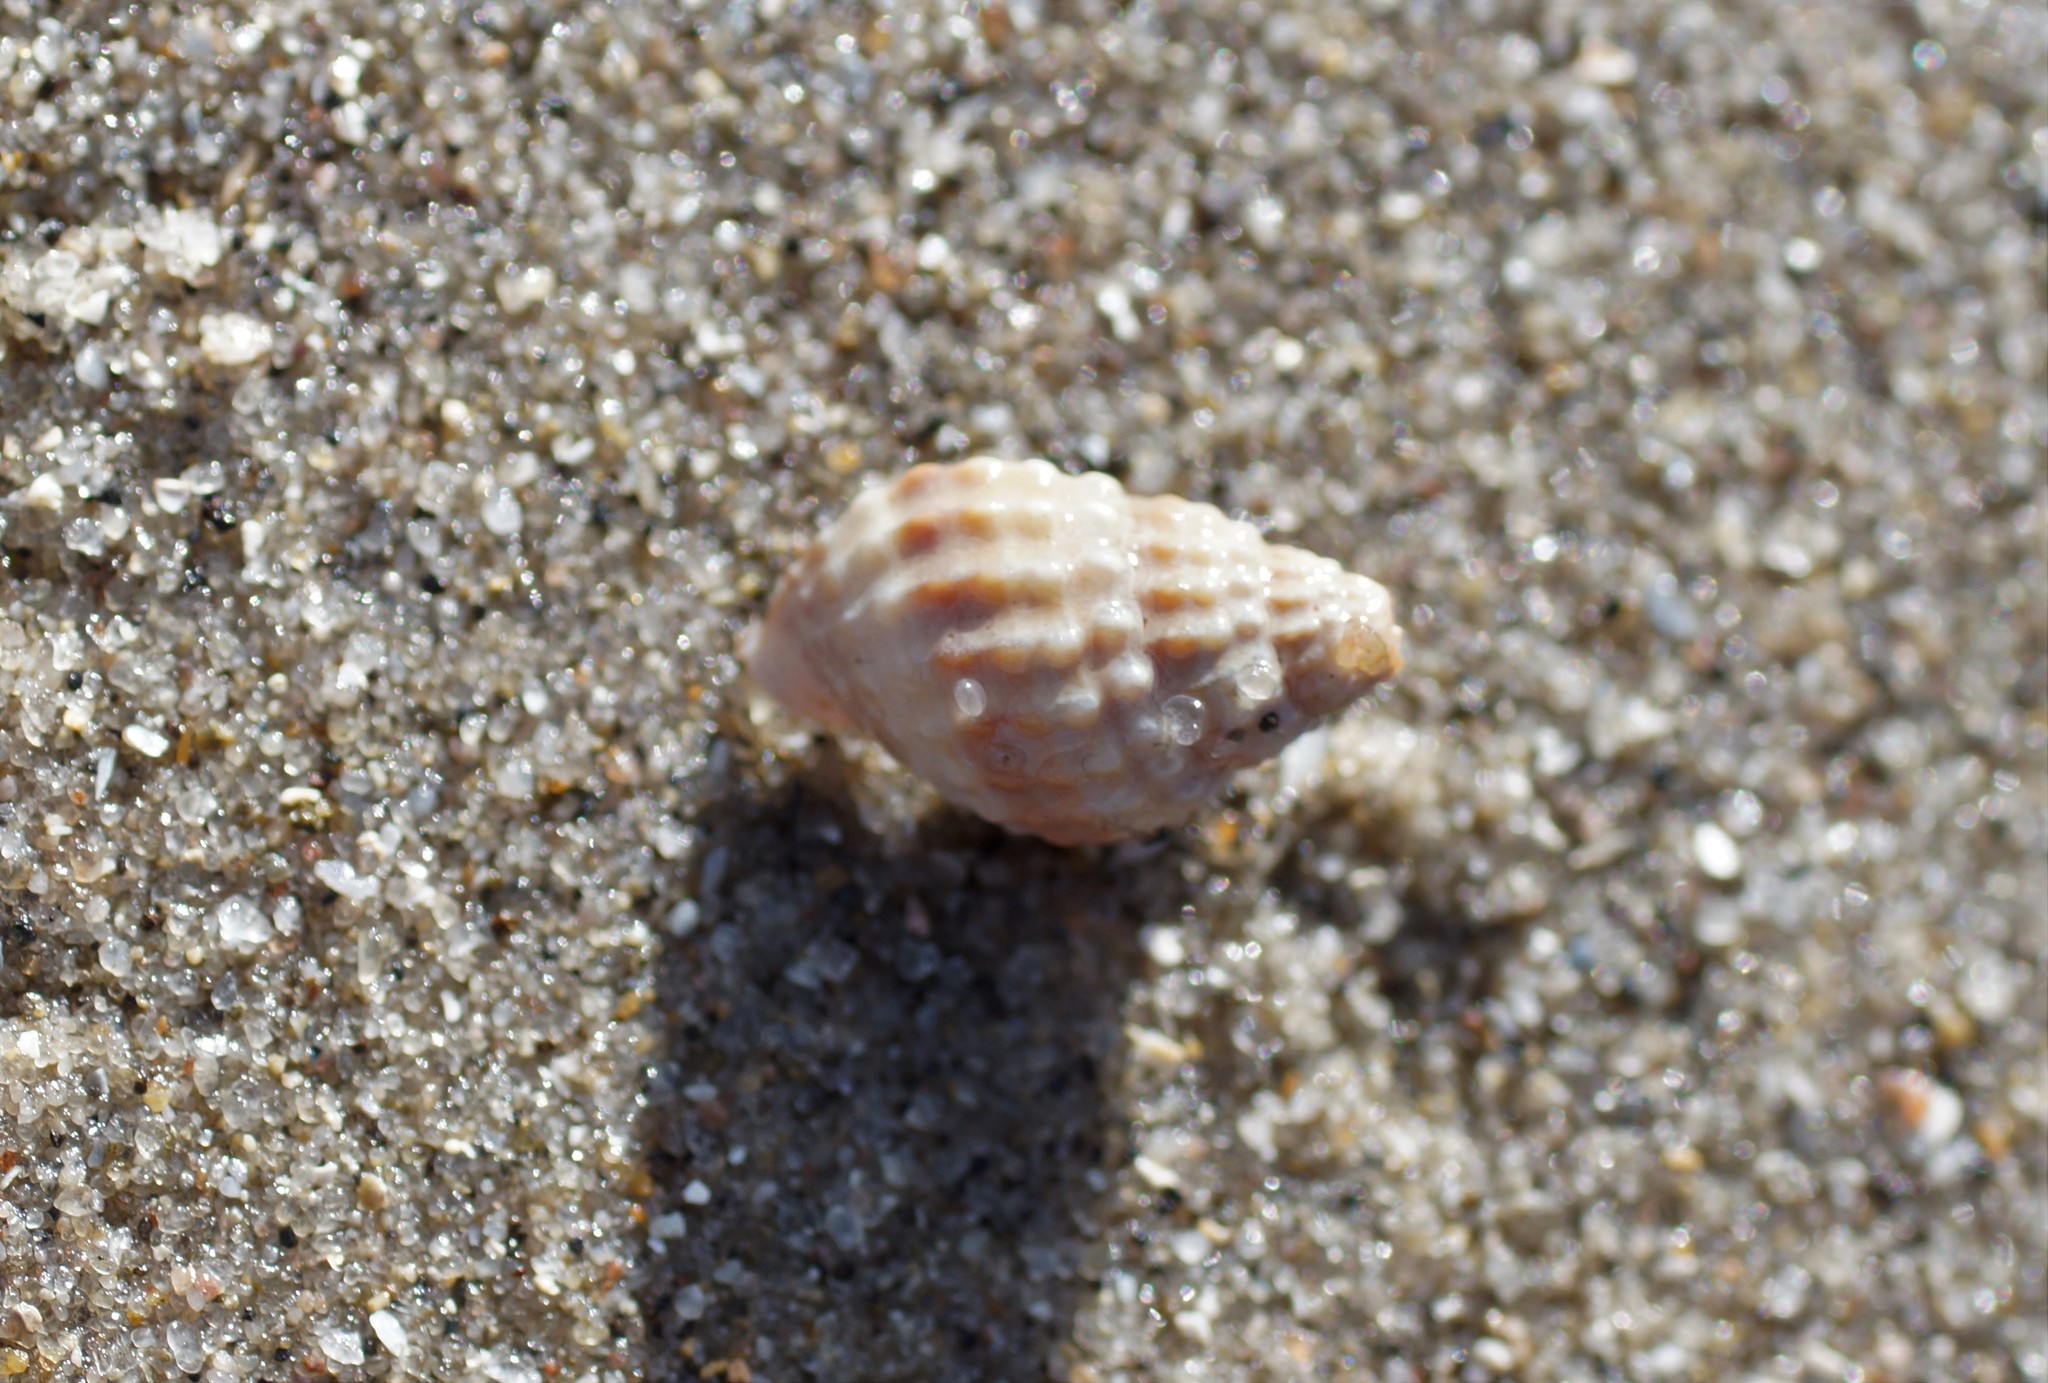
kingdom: Animalia
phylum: Mollusca
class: Gastropoda
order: Neogastropoda
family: Nassariidae
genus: Nassarius
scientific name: Nassarius pyrrhus
